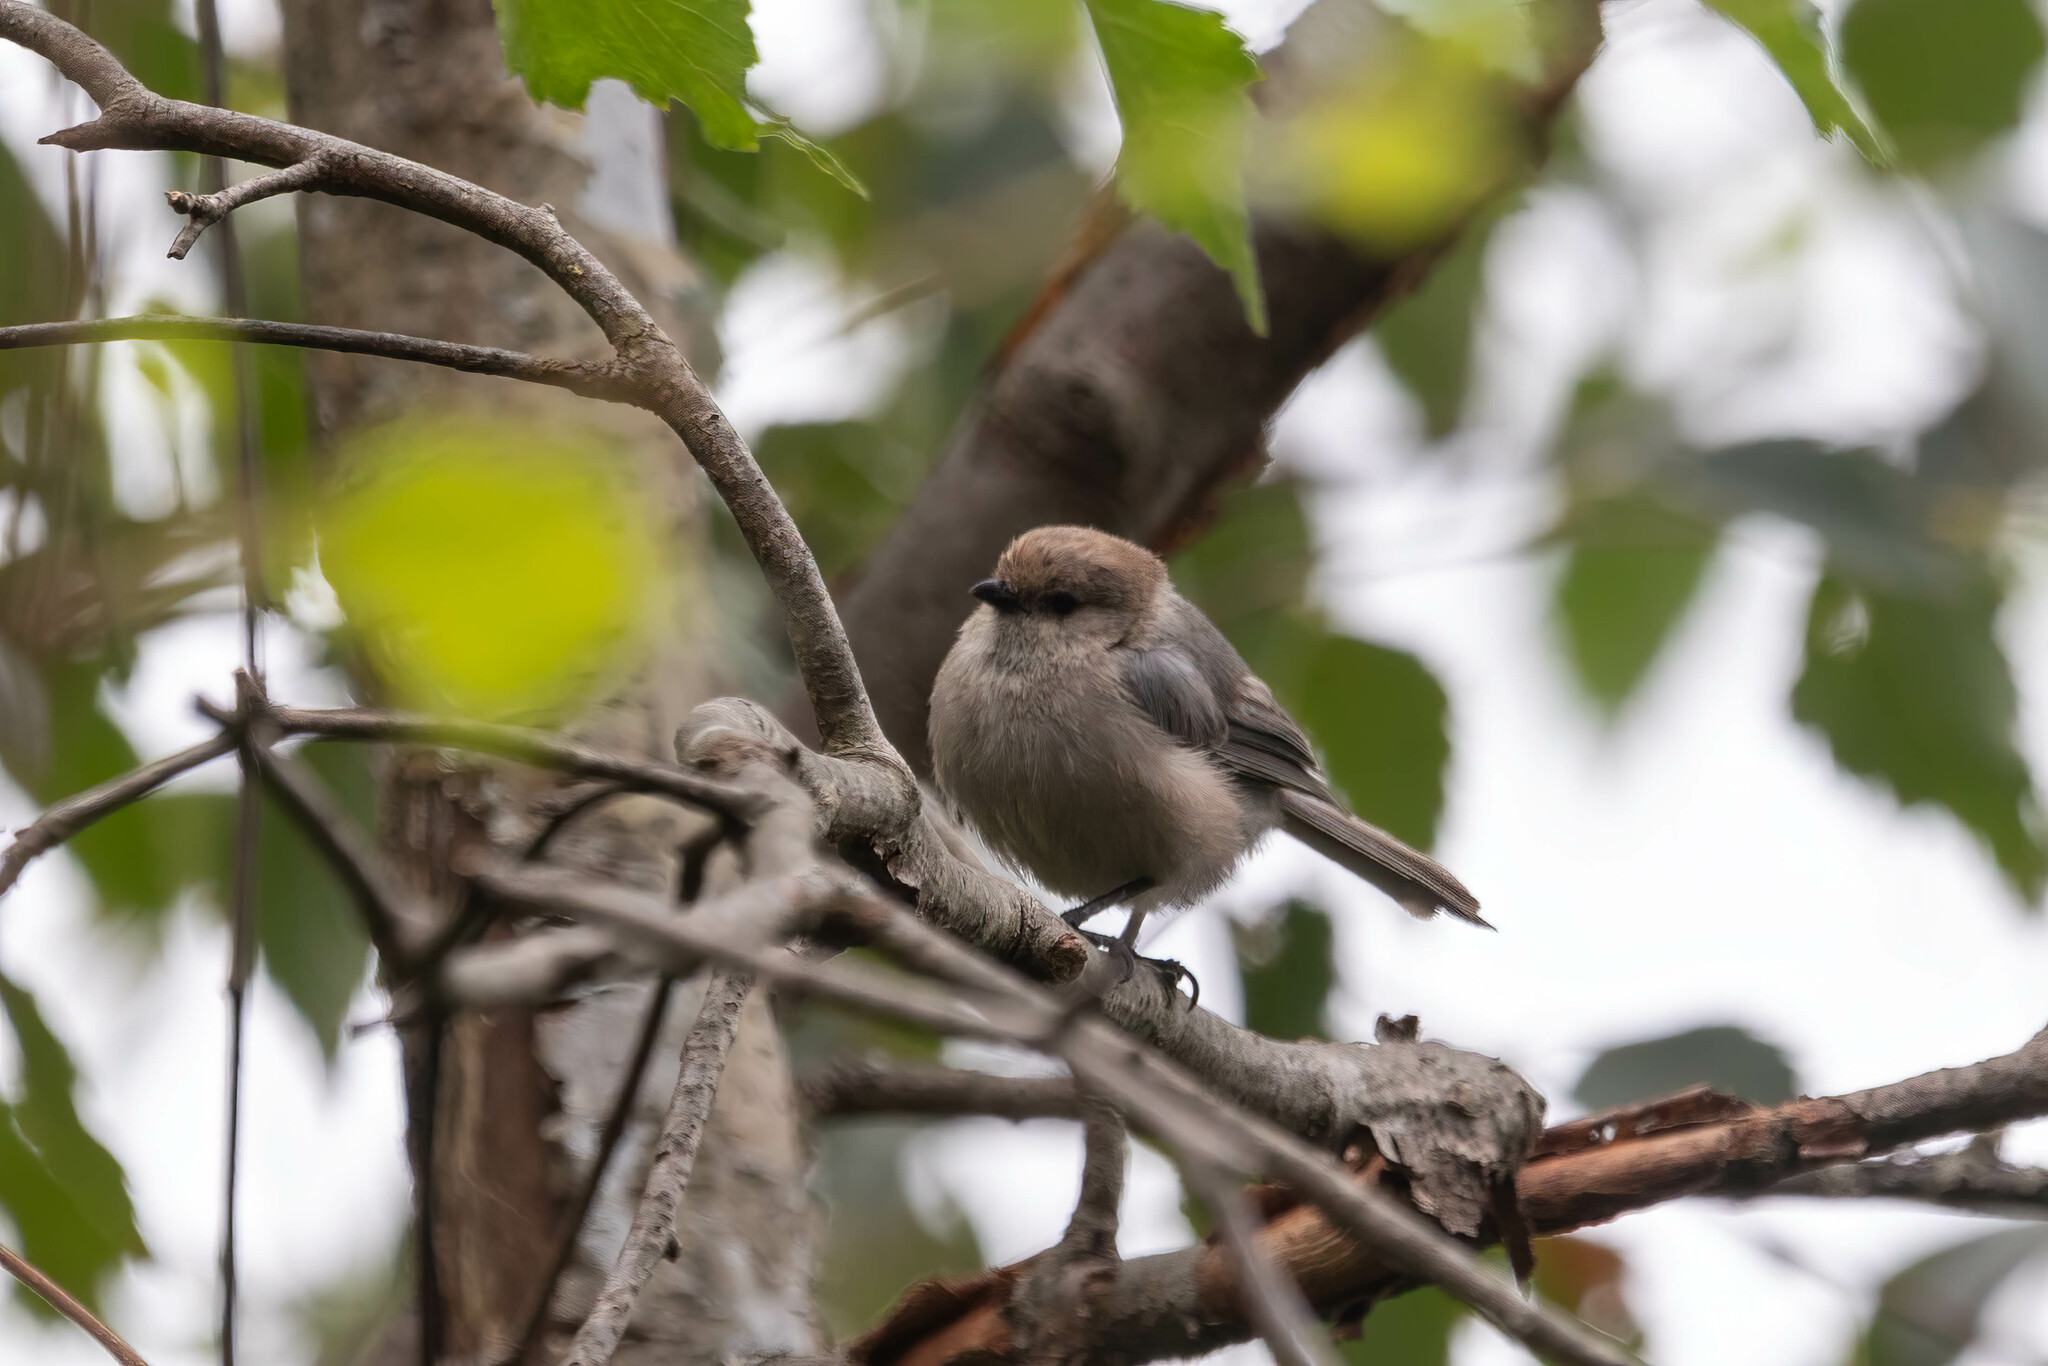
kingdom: Animalia
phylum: Chordata
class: Aves
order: Passeriformes
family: Aegithalidae
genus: Psaltriparus
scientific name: Psaltriparus minimus
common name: American bushtit
